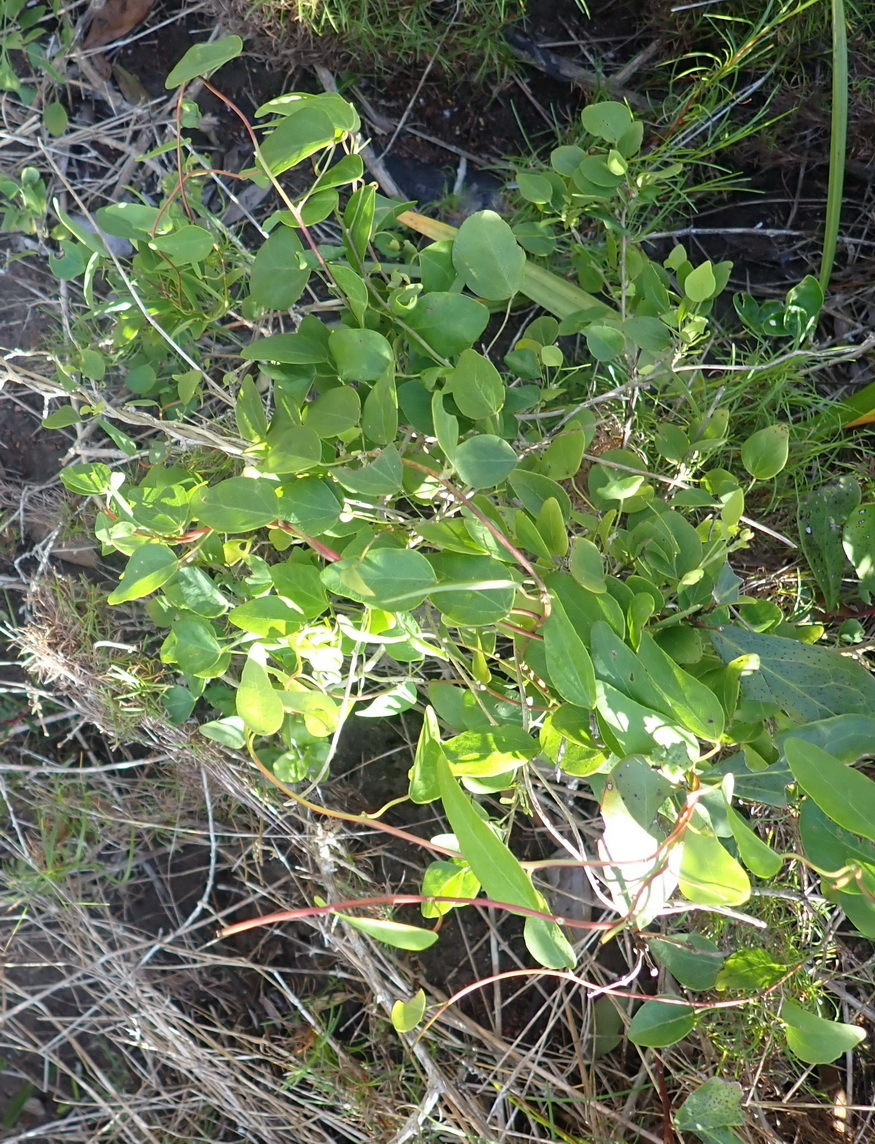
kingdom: Plantae
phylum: Tracheophyta
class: Magnoliopsida
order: Ranunculales
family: Menispermaceae
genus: Cissampelos
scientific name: Cissampelos capensis
